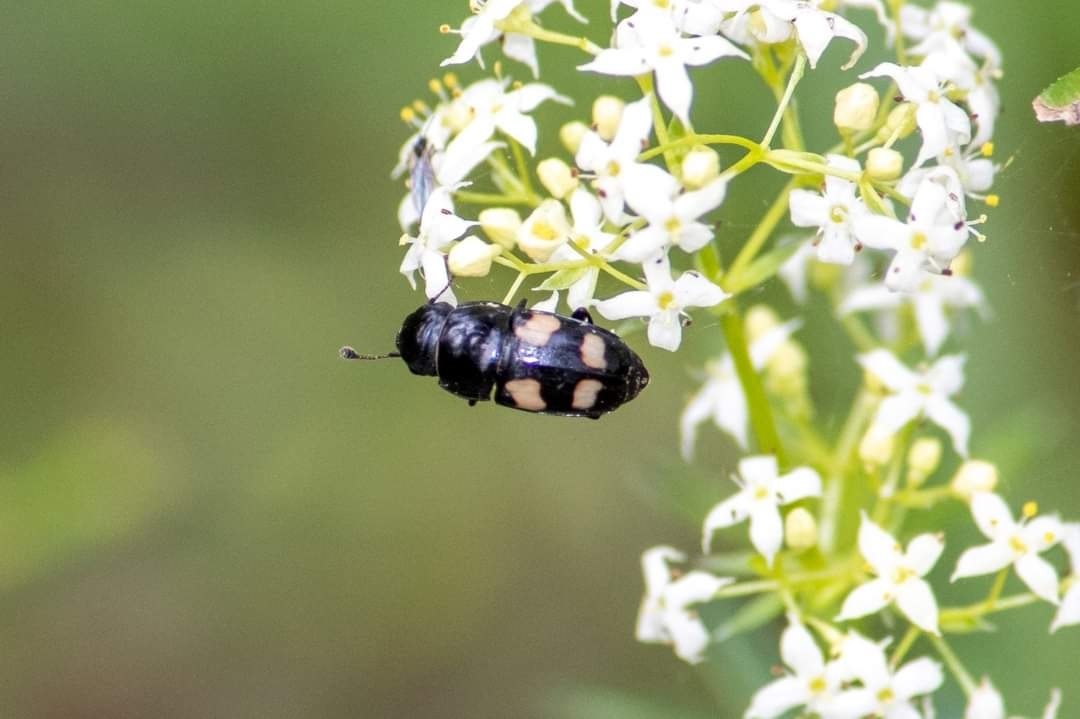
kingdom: Animalia
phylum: Arthropoda
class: Insecta
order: Coleoptera
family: Nitidulidae
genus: Glischrochilus
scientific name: Glischrochilus quadrisignatus
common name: Picnic beetle
